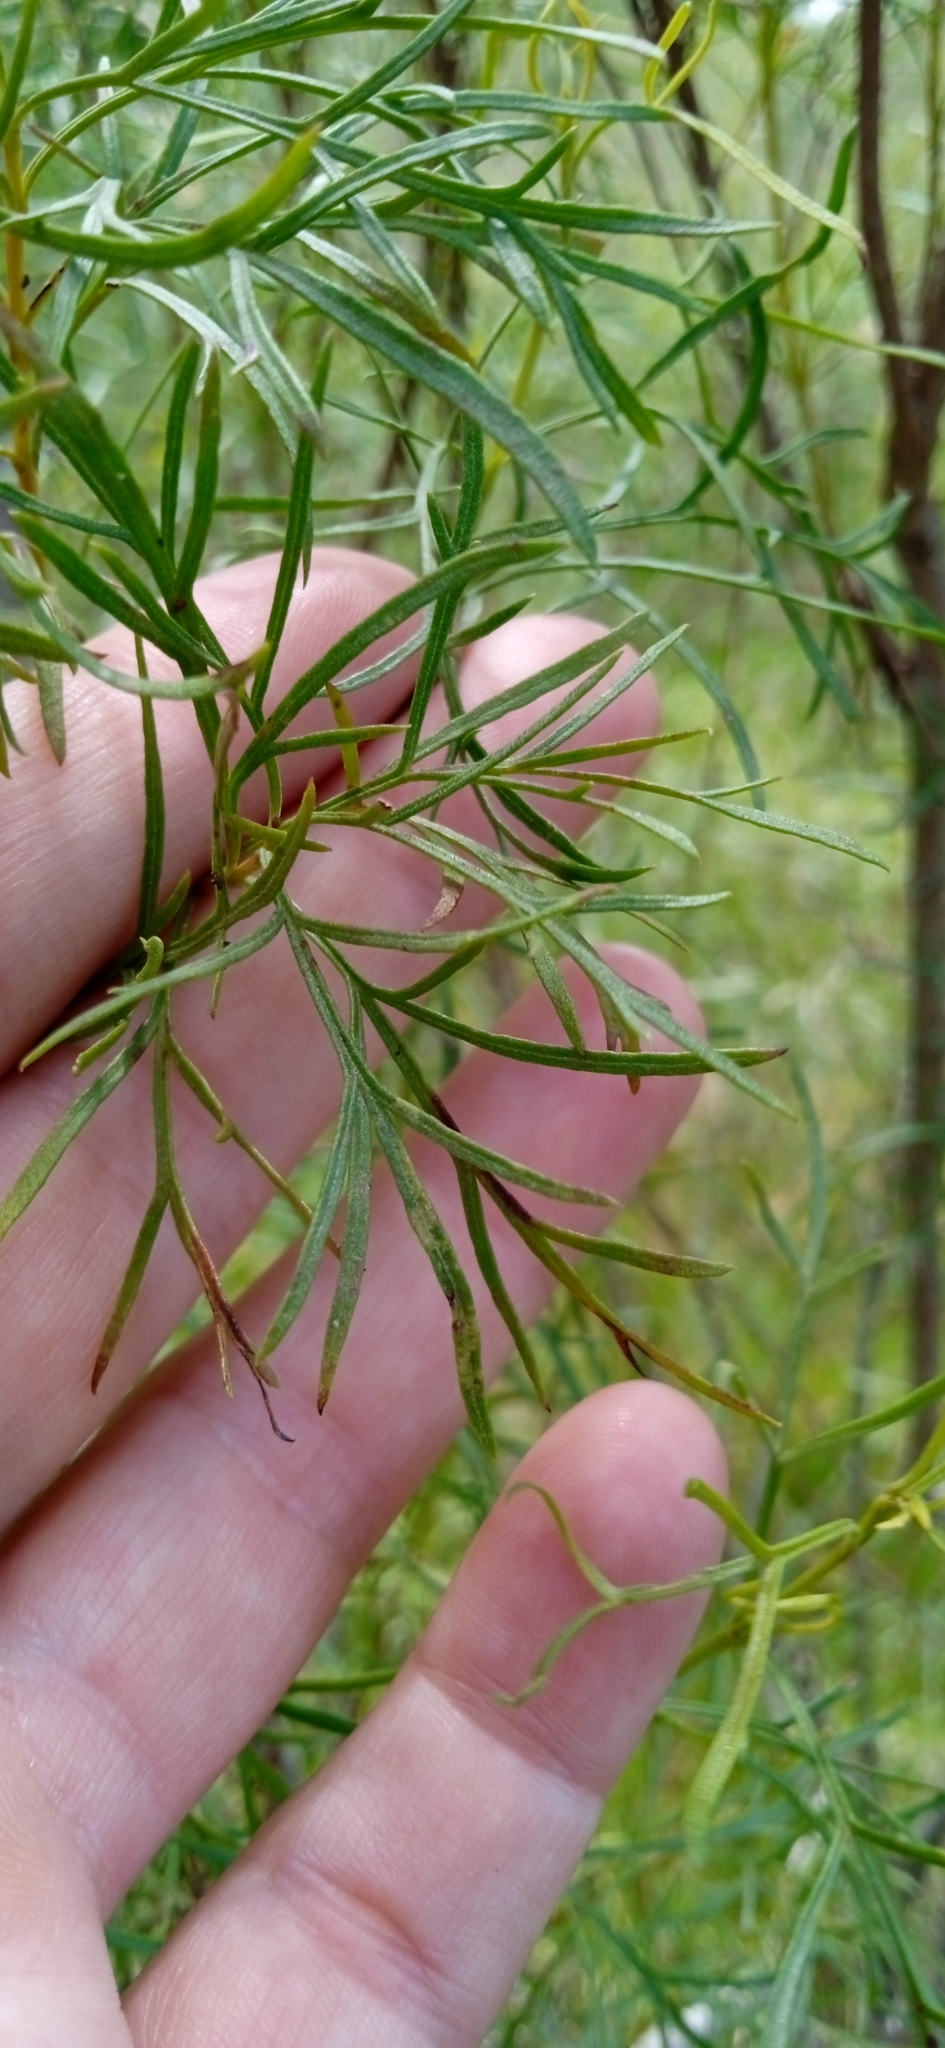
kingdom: Plantae
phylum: Tracheophyta
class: Magnoliopsida
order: Asterales
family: Asteraceae
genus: Acanthostyles
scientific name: Acanthostyles buniifolius
